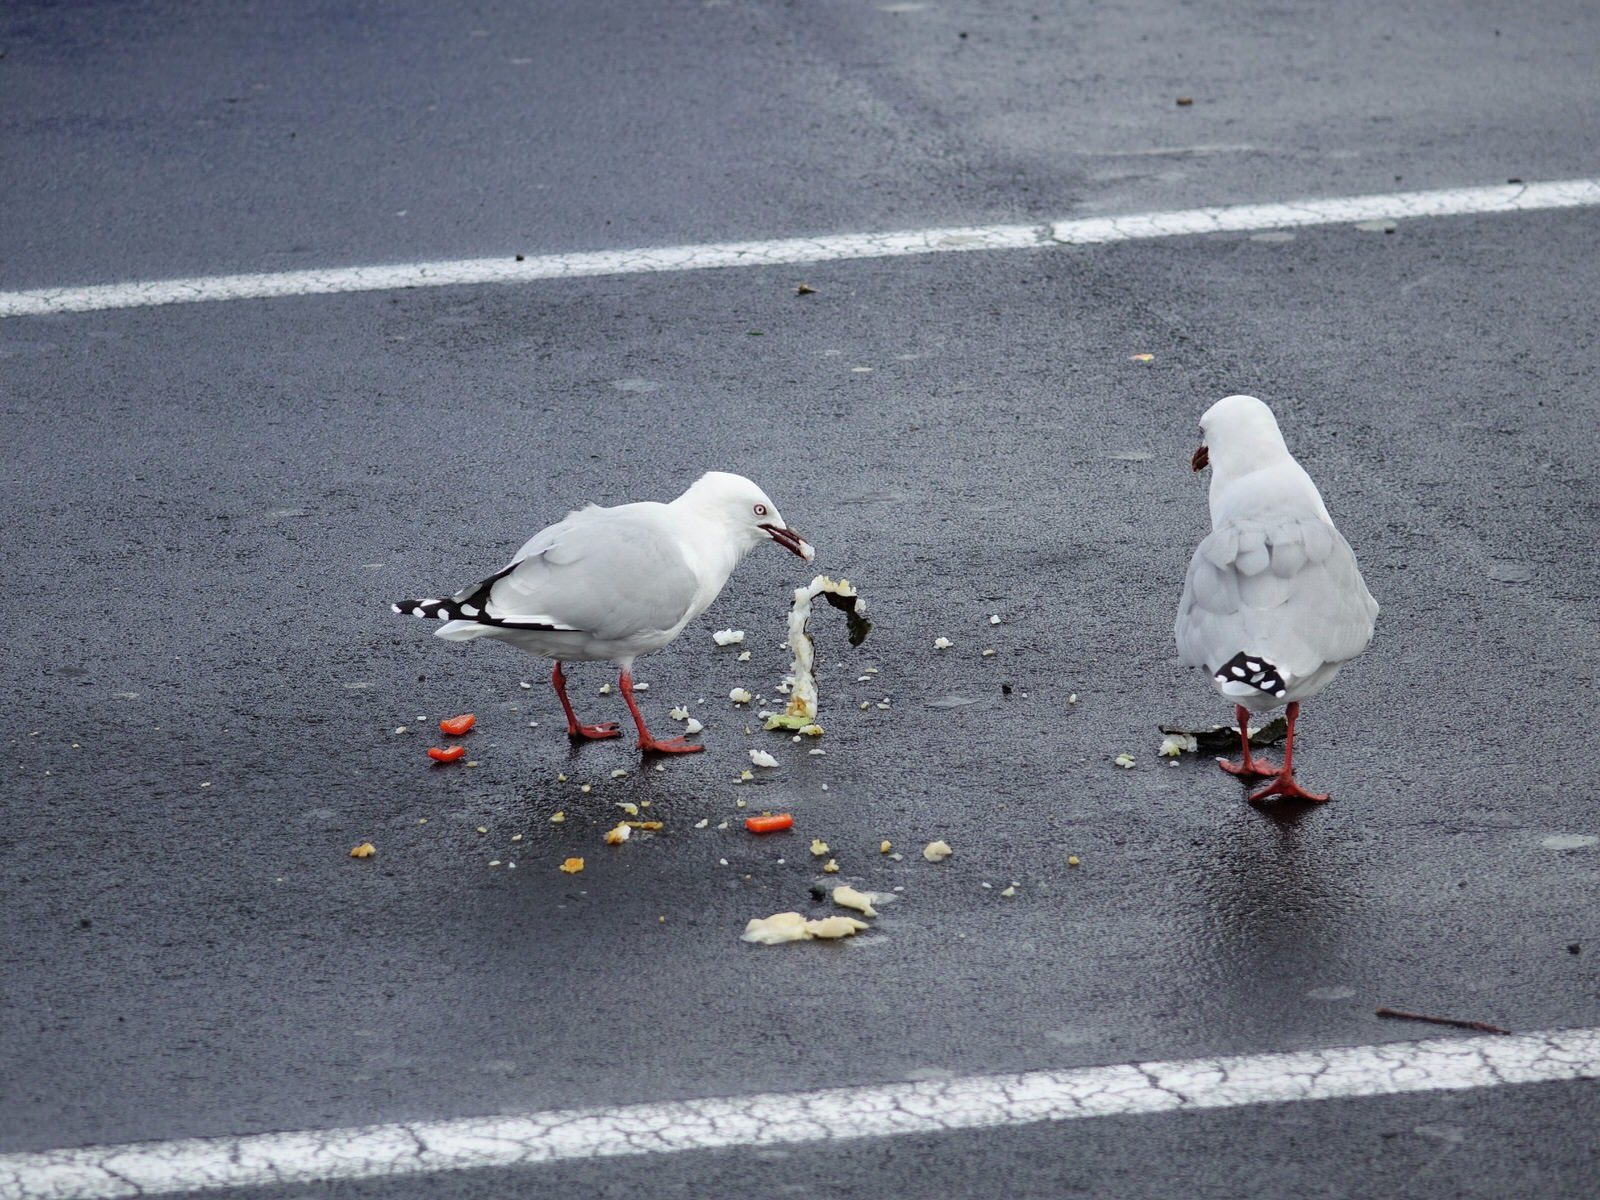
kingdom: Animalia
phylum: Chordata
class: Aves
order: Charadriiformes
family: Laridae
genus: Chroicocephalus
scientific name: Chroicocephalus novaehollandiae
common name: Silver gull
